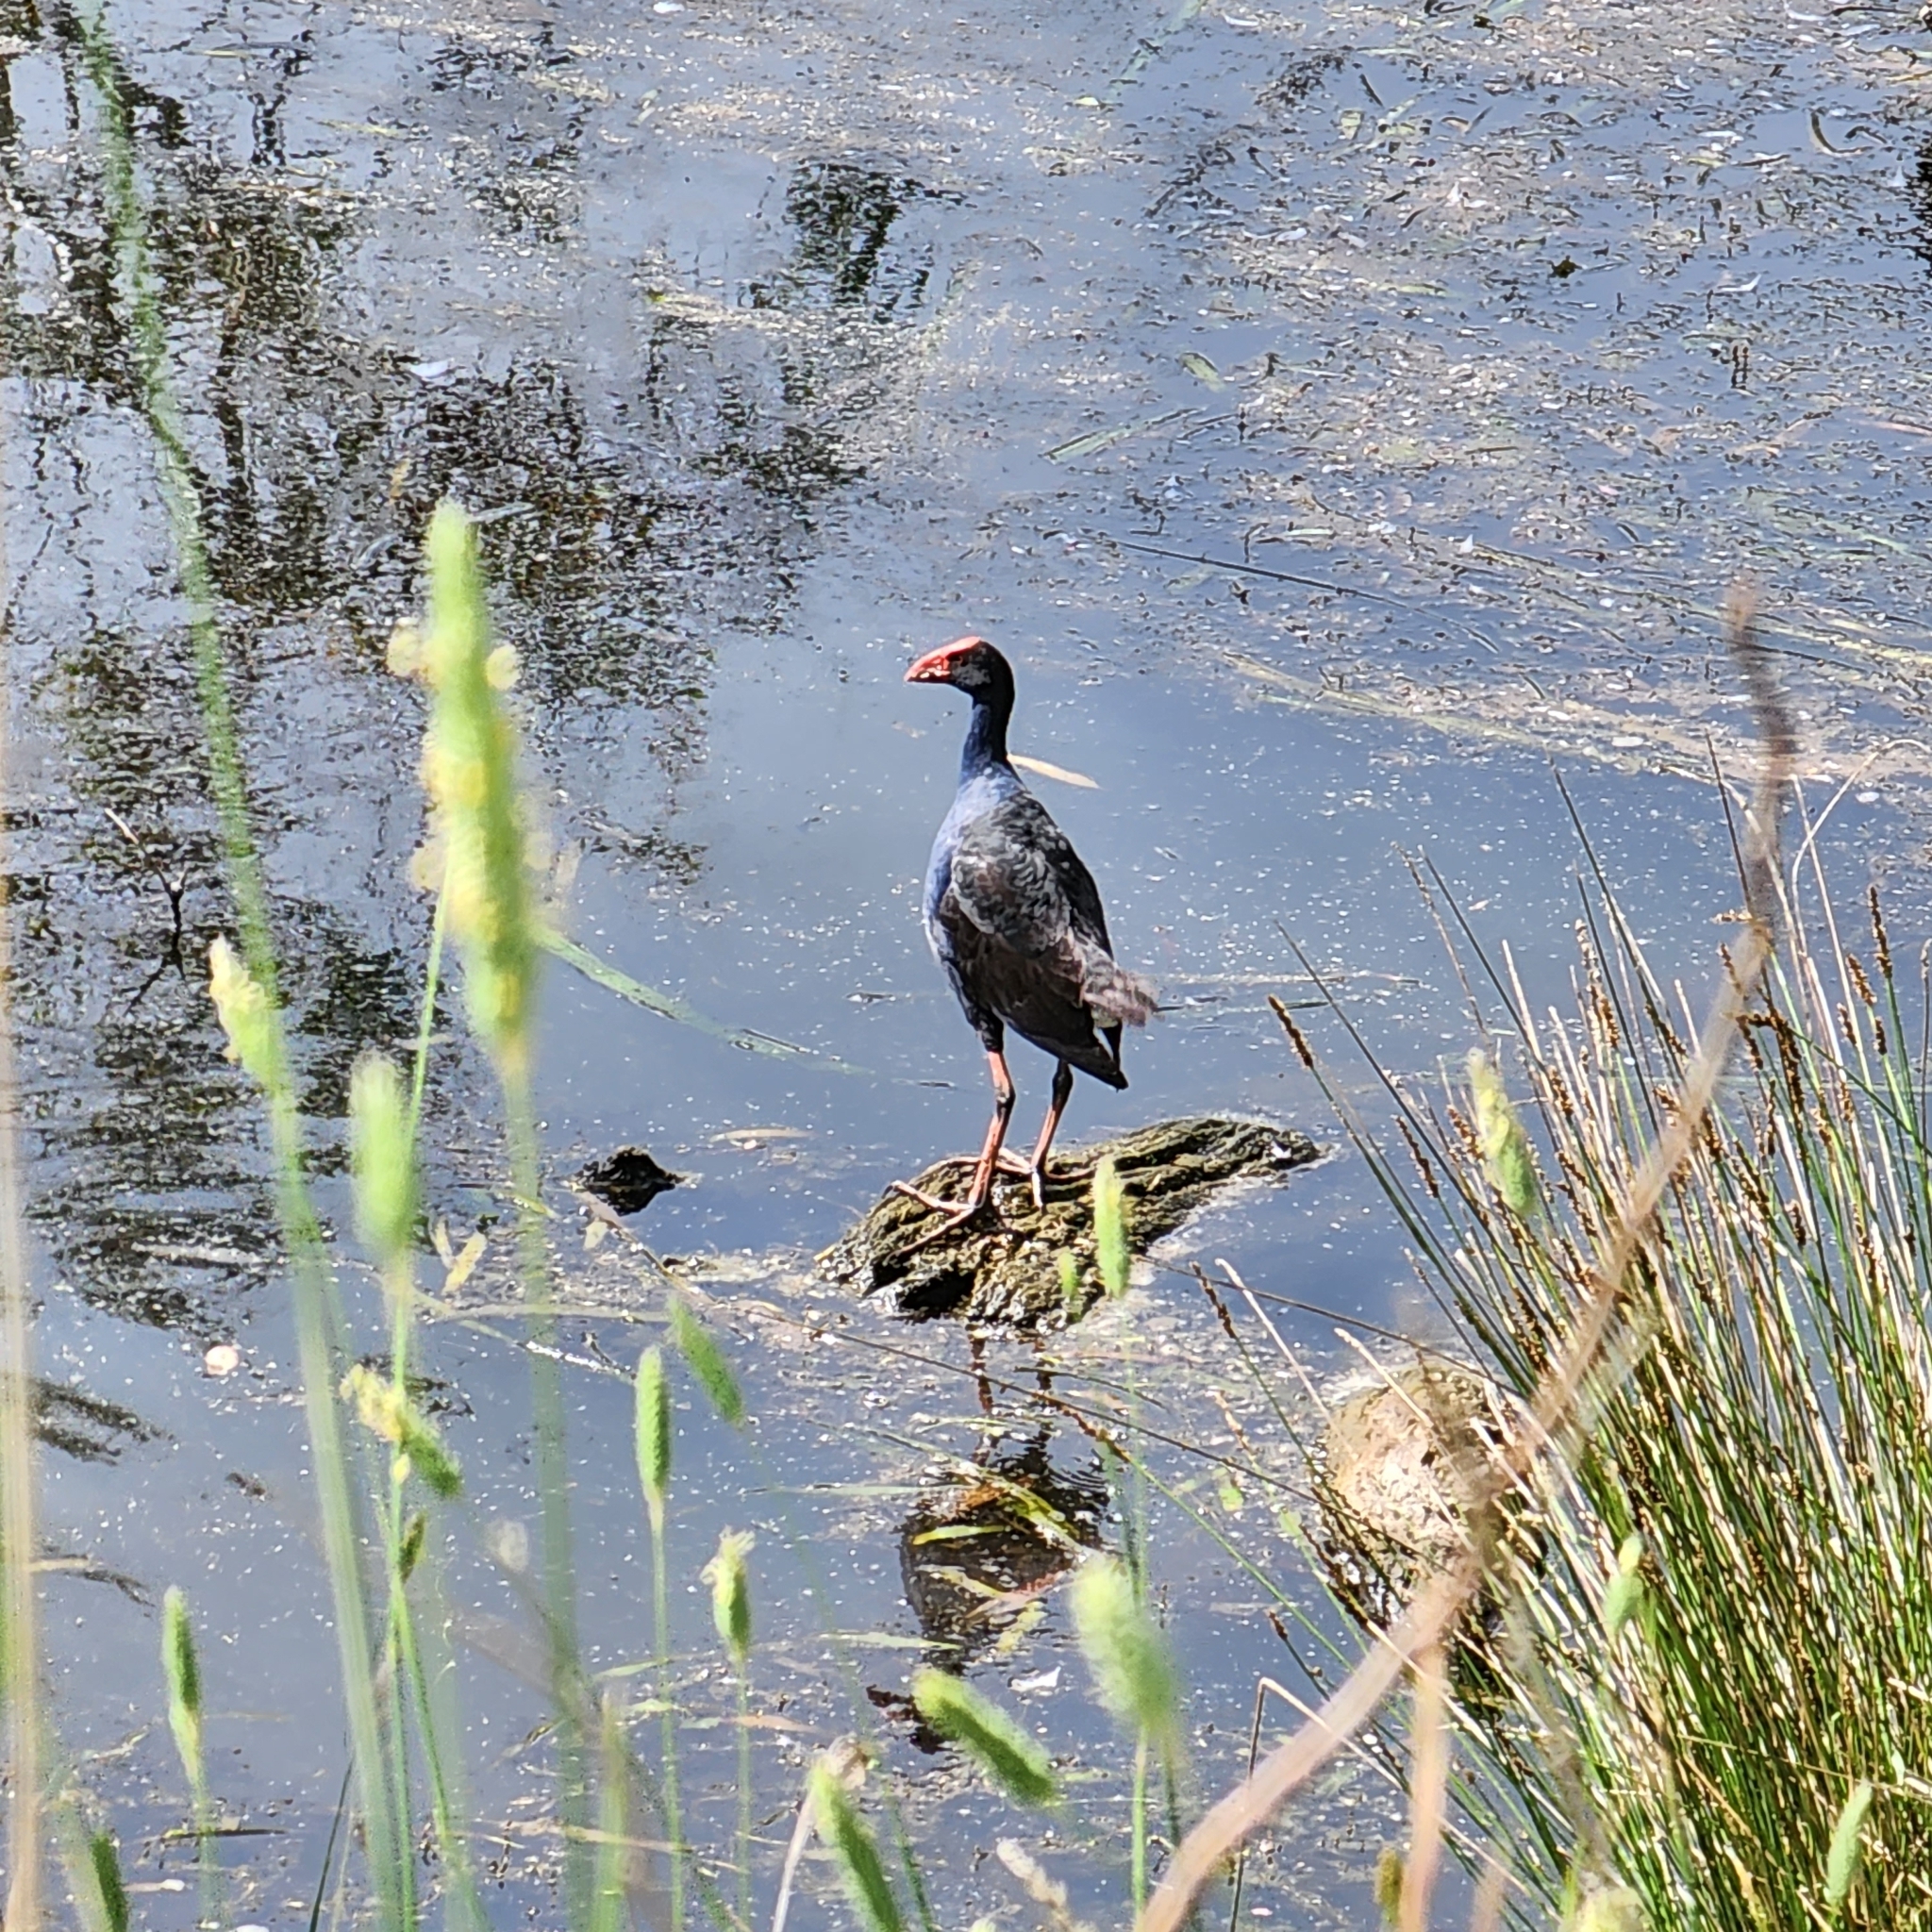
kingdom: Animalia
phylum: Chordata
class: Aves
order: Gruiformes
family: Rallidae
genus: Porphyrio
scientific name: Porphyrio melanotus
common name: Australasian swamphen
